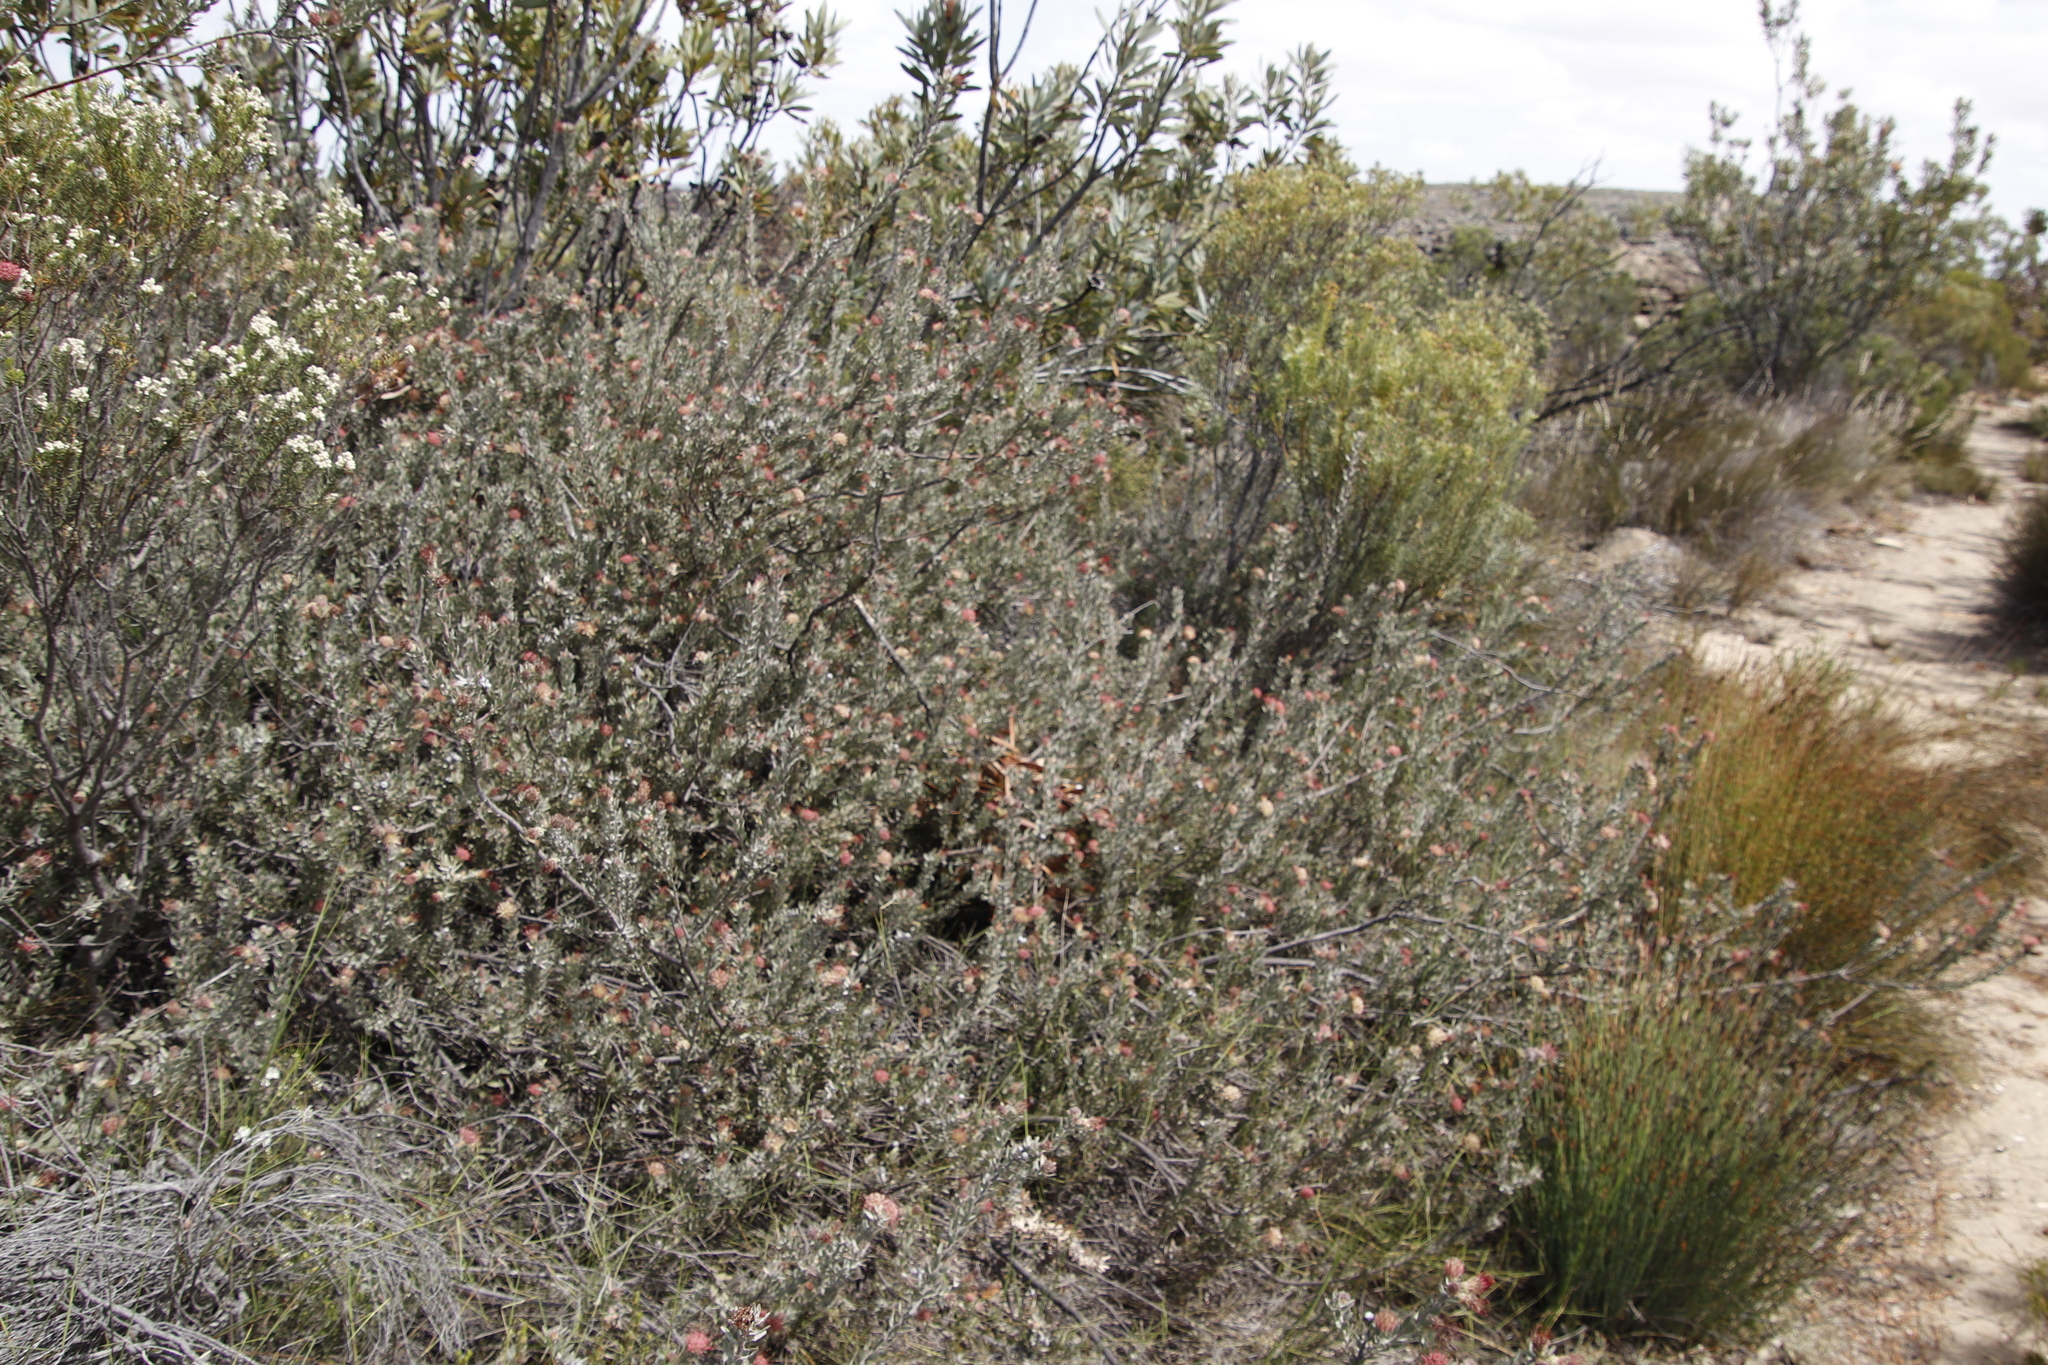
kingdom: Plantae
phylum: Tracheophyta
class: Magnoliopsida
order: Proteales
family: Proteaceae
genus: Leucospermum
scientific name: Leucospermum calligerum
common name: Arid pincushion
